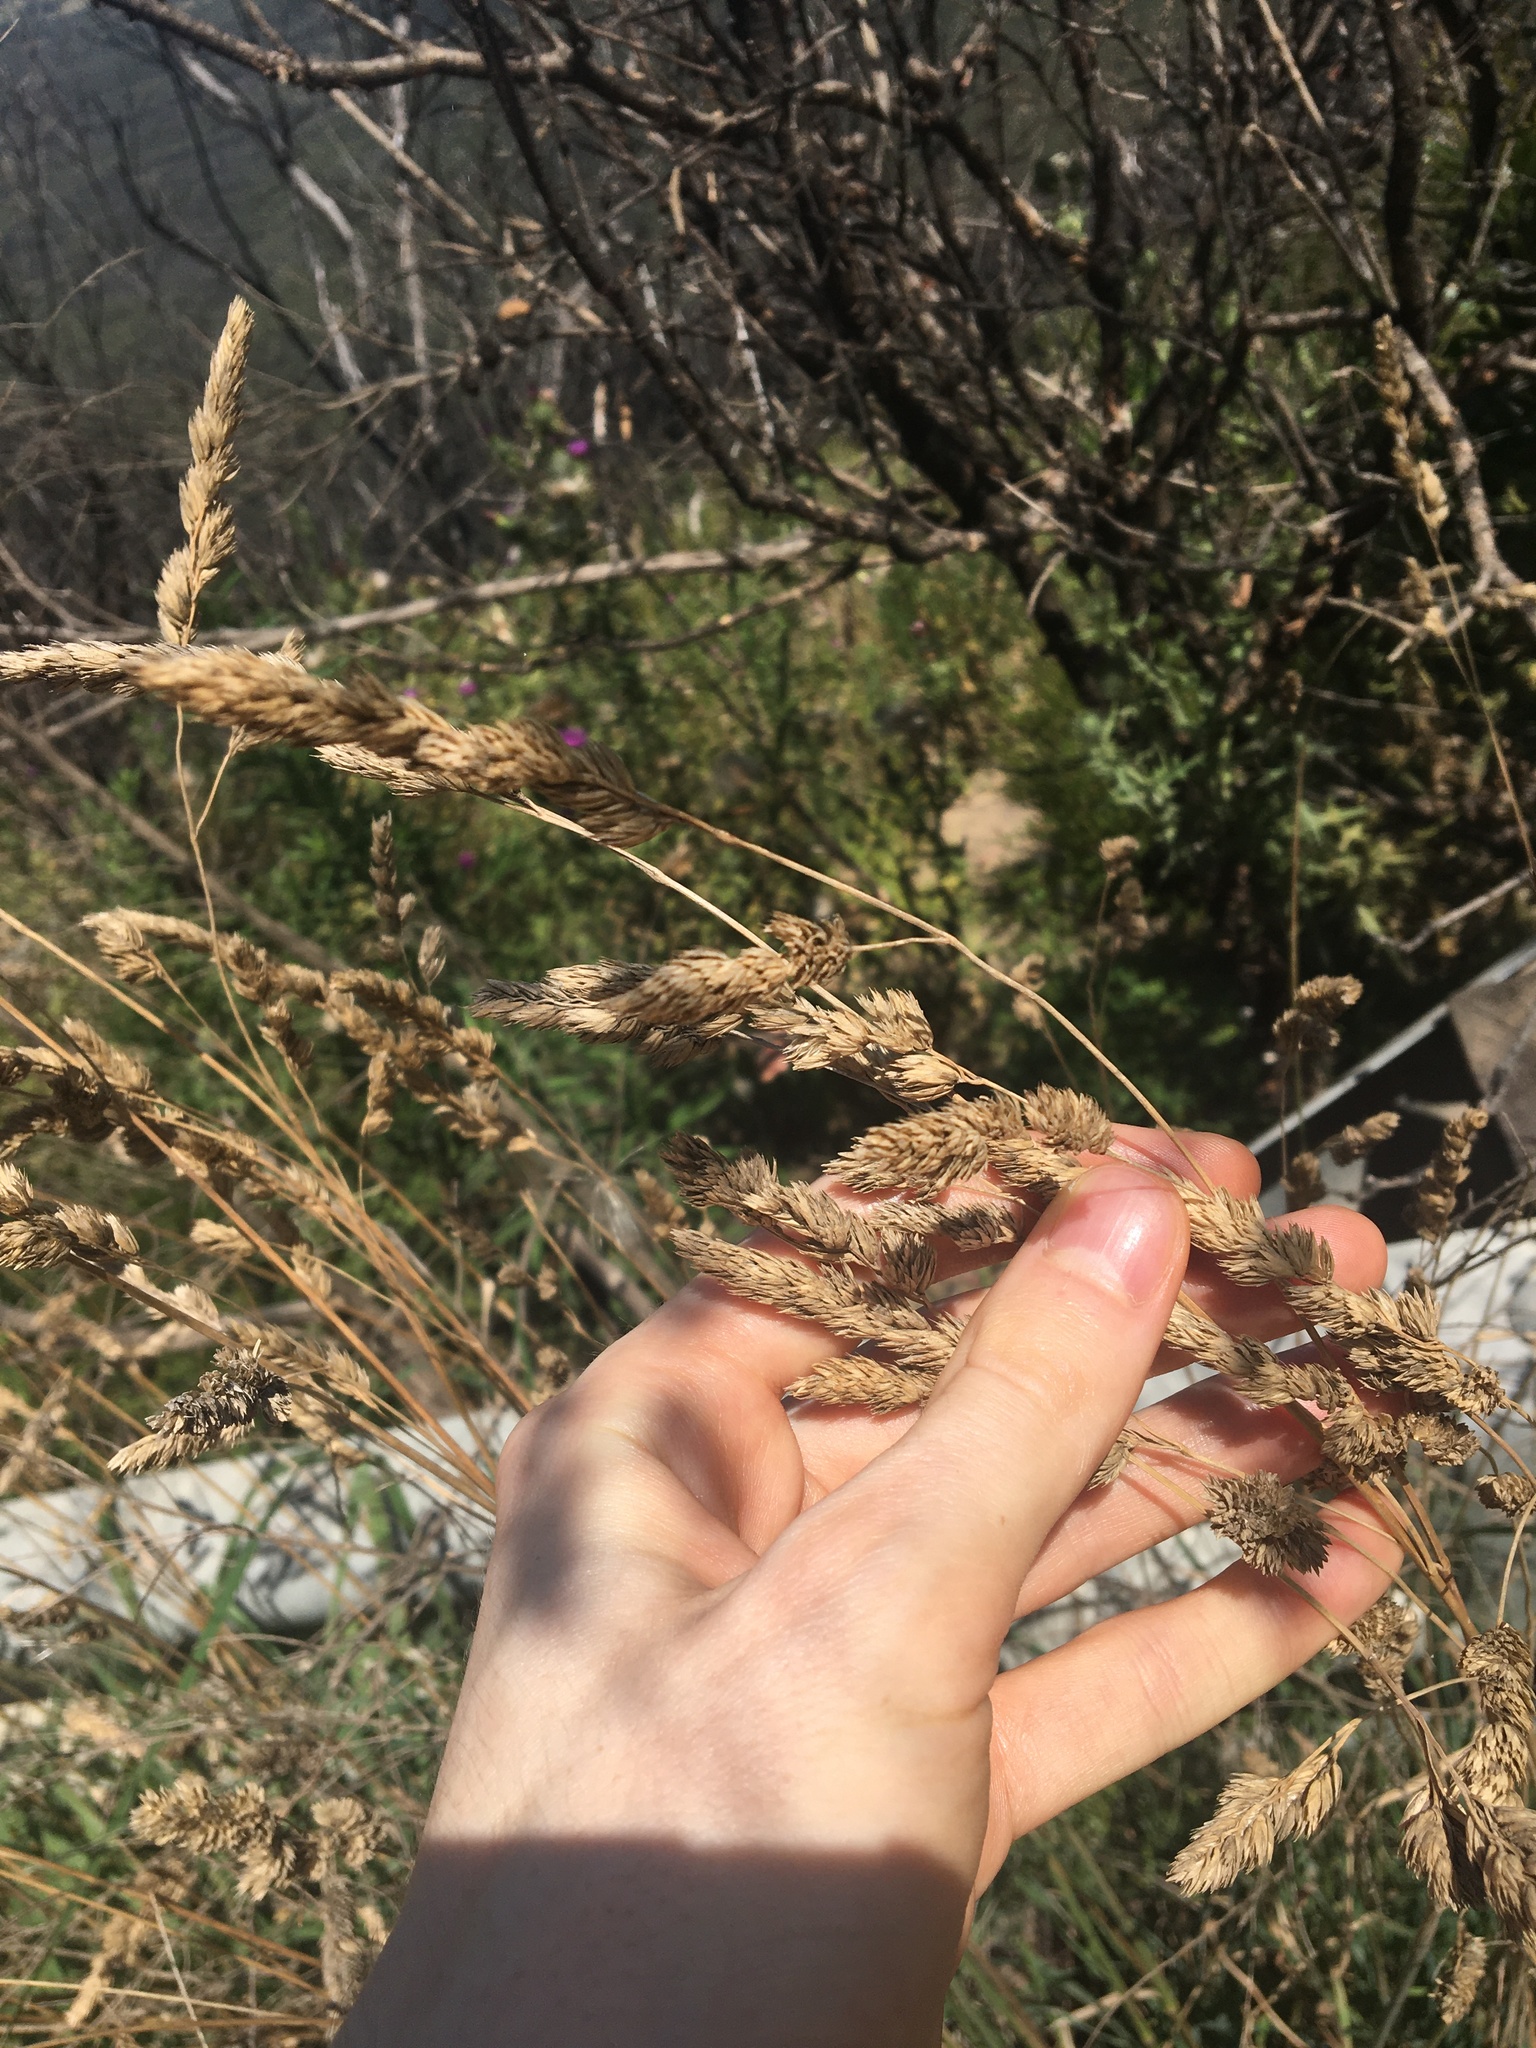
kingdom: Plantae
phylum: Tracheophyta
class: Liliopsida
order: Poales
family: Poaceae
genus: Dactylis
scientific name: Dactylis glomerata
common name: Orchardgrass
